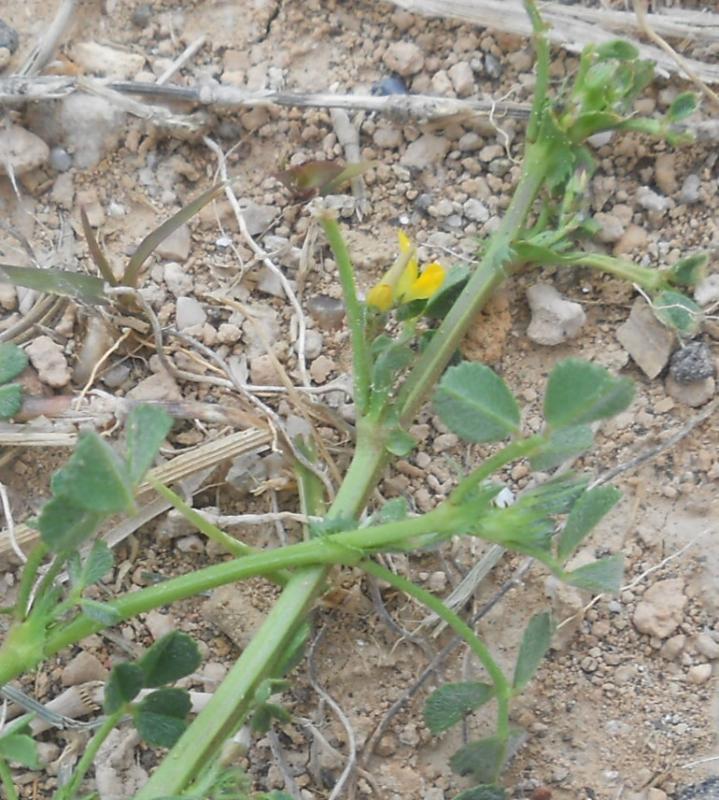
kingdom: Plantae
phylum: Tracheophyta
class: Magnoliopsida
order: Fabales
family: Fabaceae
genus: Medicago
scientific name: Medicago truncatula
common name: Strong-spined medick
